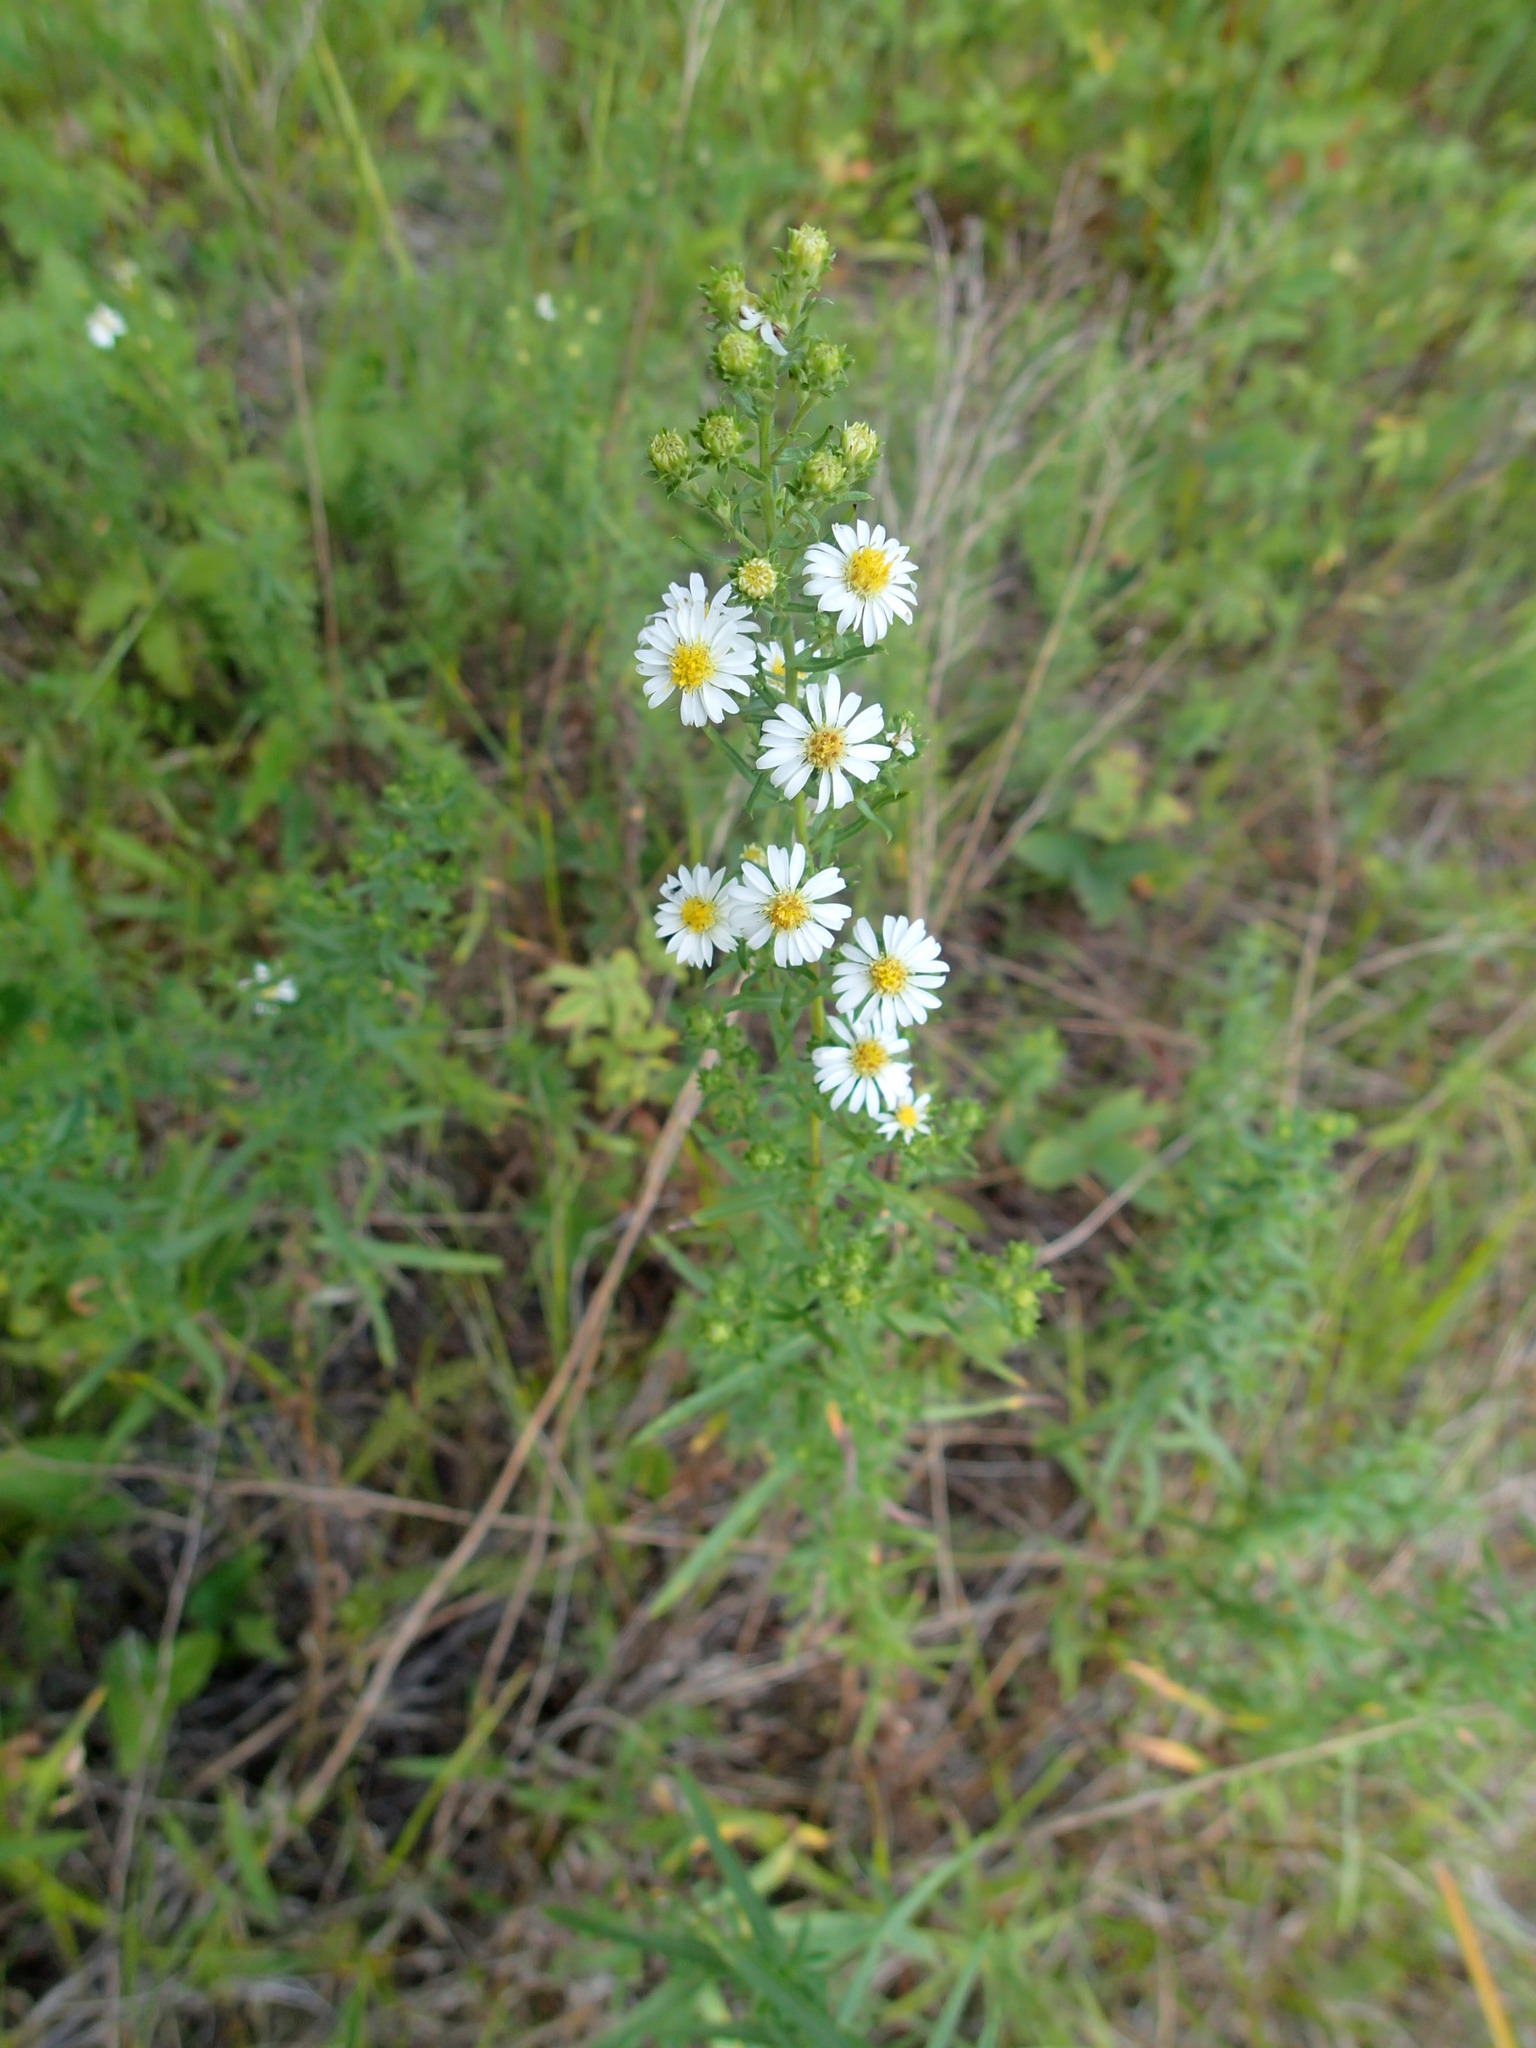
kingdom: Plantae
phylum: Tracheophyta
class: Magnoliopsida
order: Asterales
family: Asteraceae
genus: Symphyotrichum
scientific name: Symphyotrichum ericoides
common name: Heath aster
